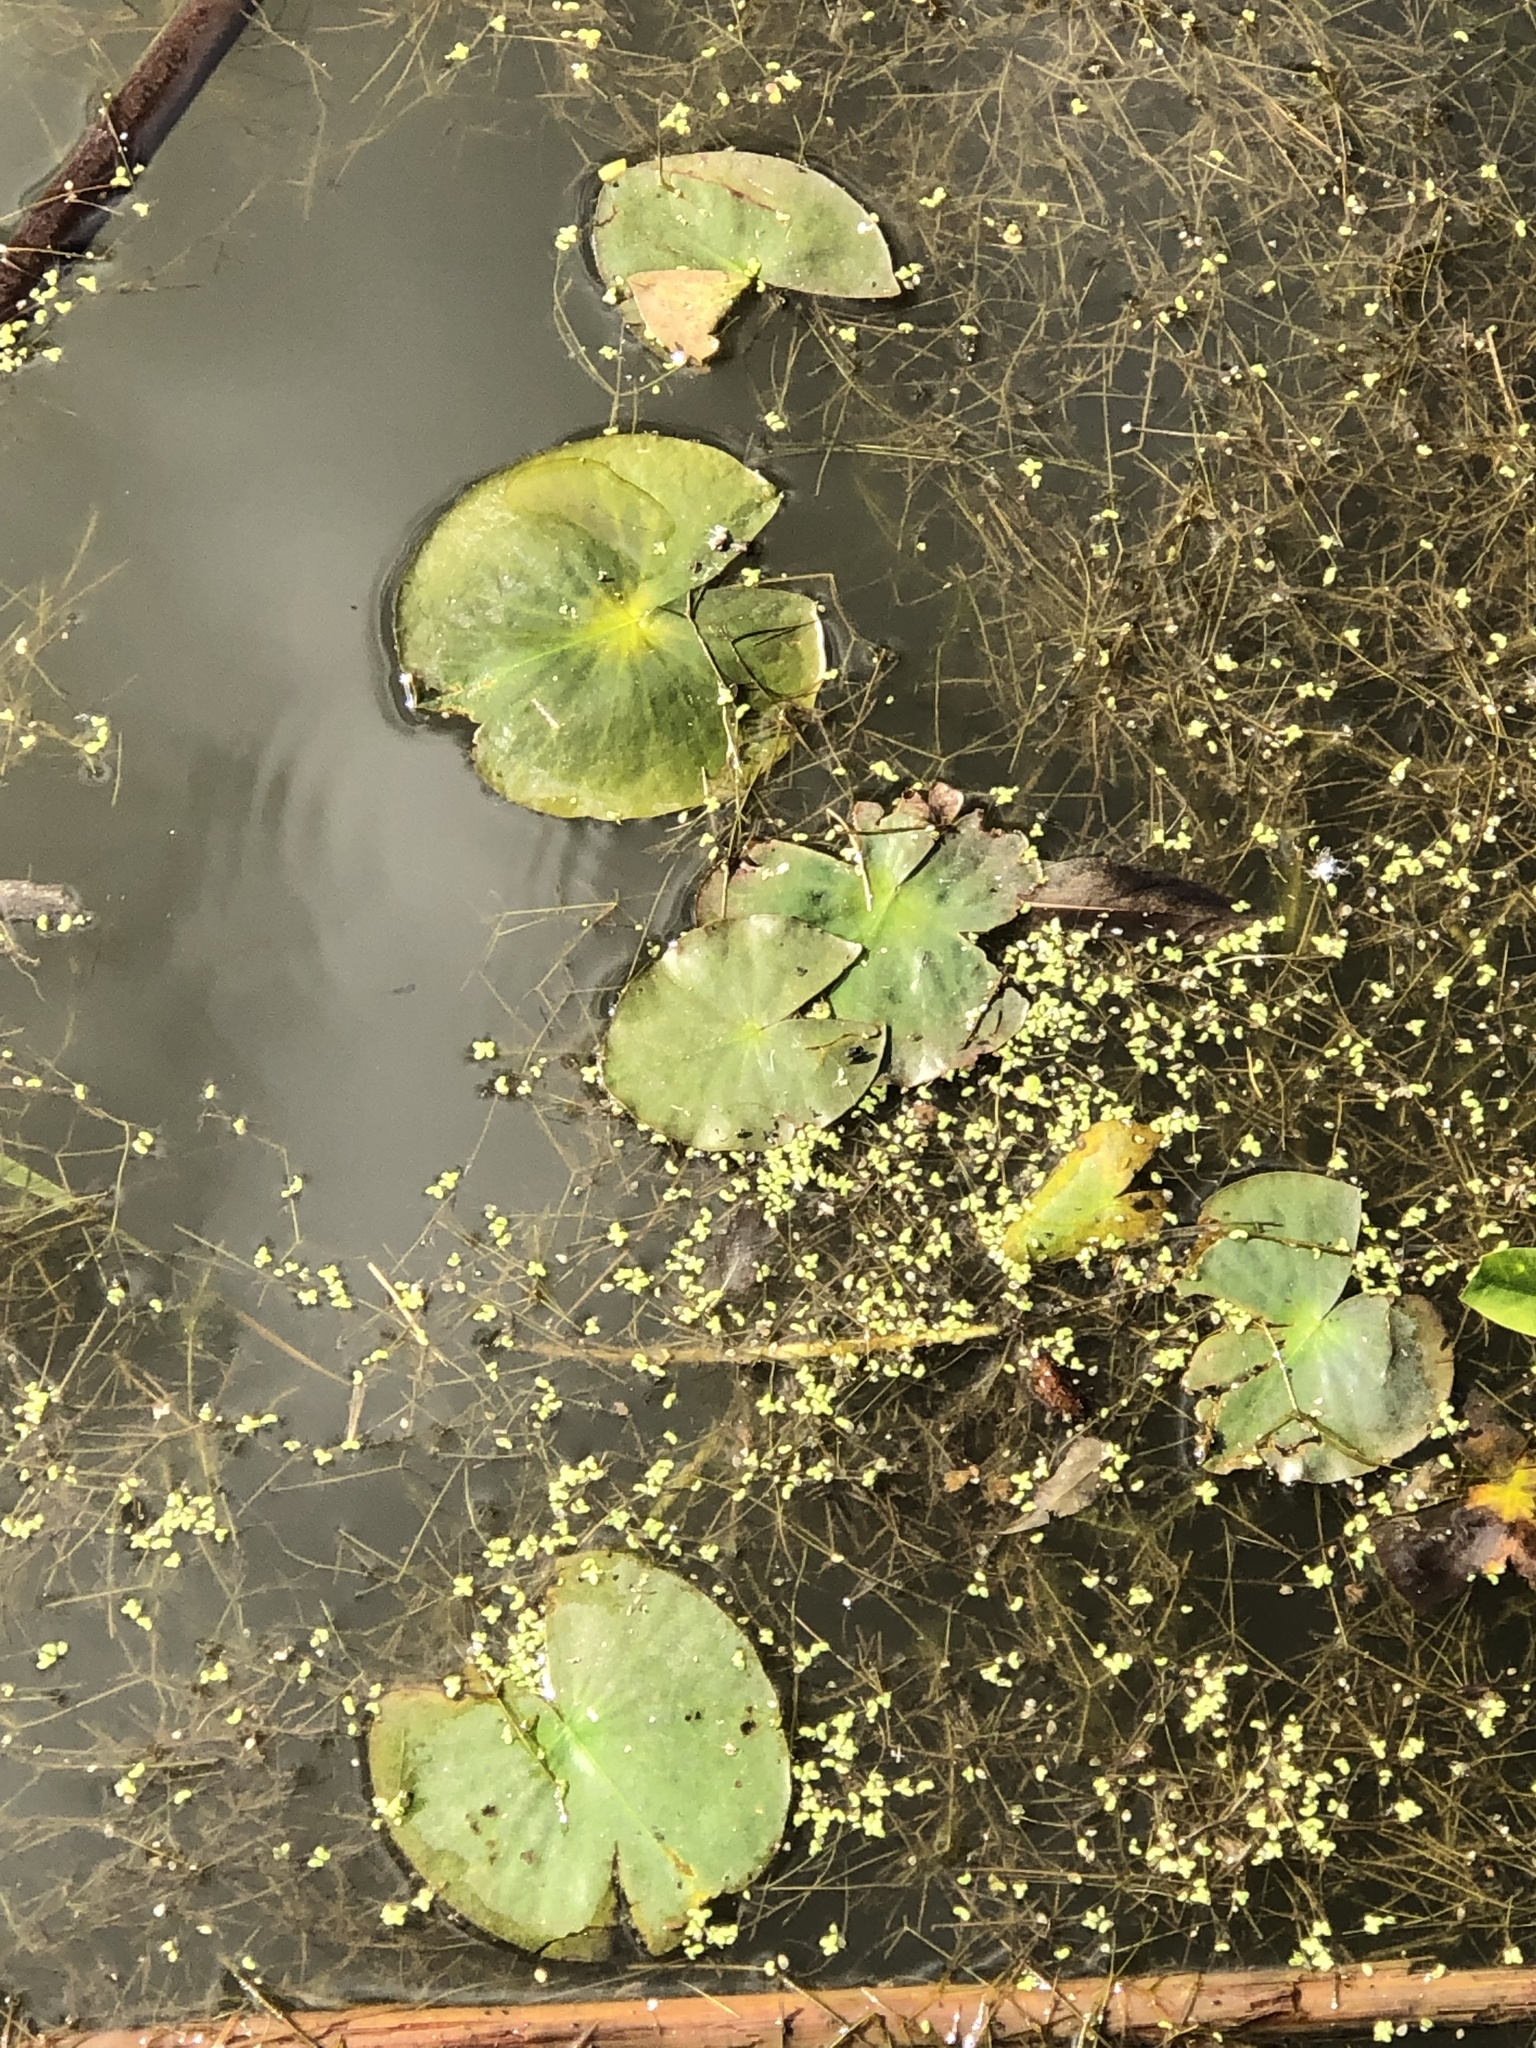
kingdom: Plantae
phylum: Tracheophyta
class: Magnoliopsida
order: Nymphaeales
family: Nymphaeaceae
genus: Nymphaea
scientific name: Nymphaea odorata
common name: Fragrant water-lily
